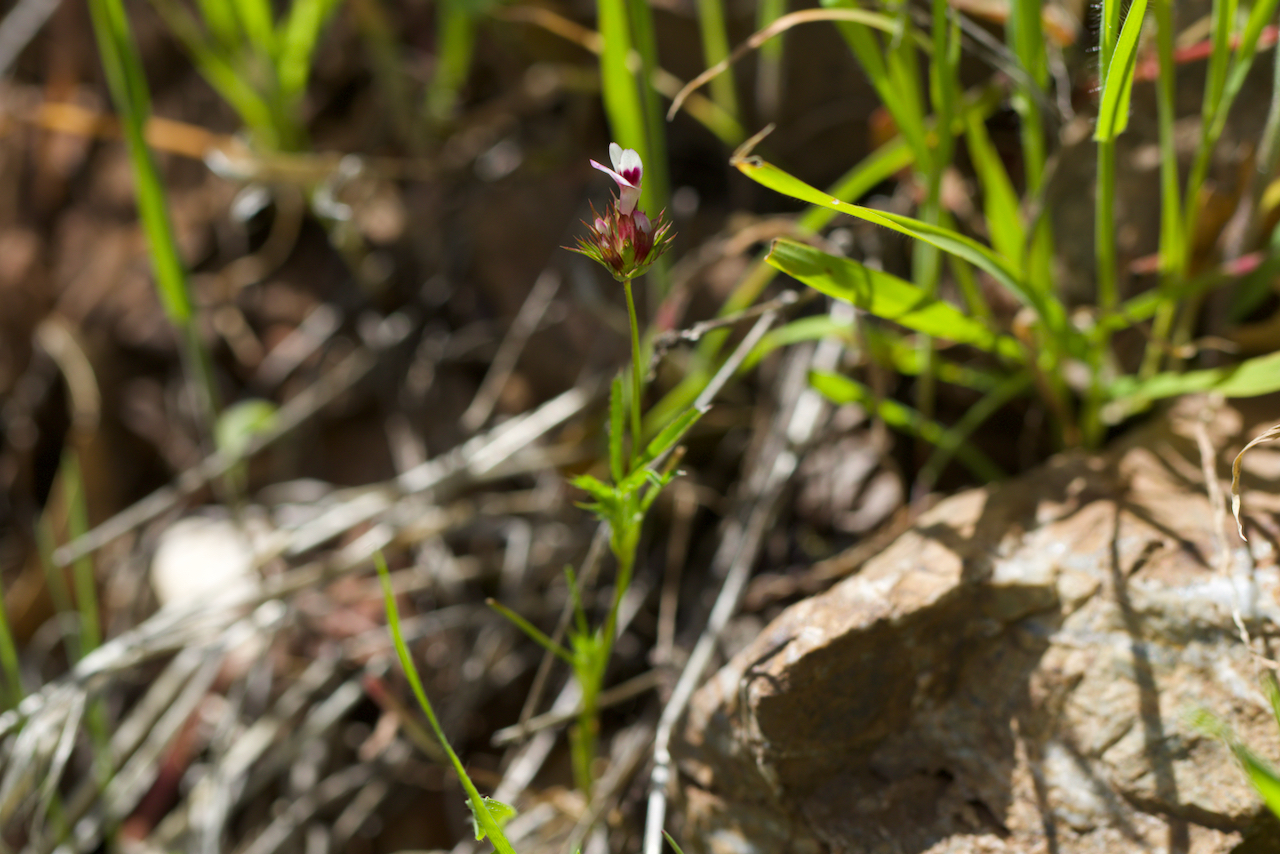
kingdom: Plantae
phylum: Tracheophyta
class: Magnoliopsida
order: Fabales
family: Fabaceae
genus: Trifolium
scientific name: Trifolium willdenovii
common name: Tomcat clover
